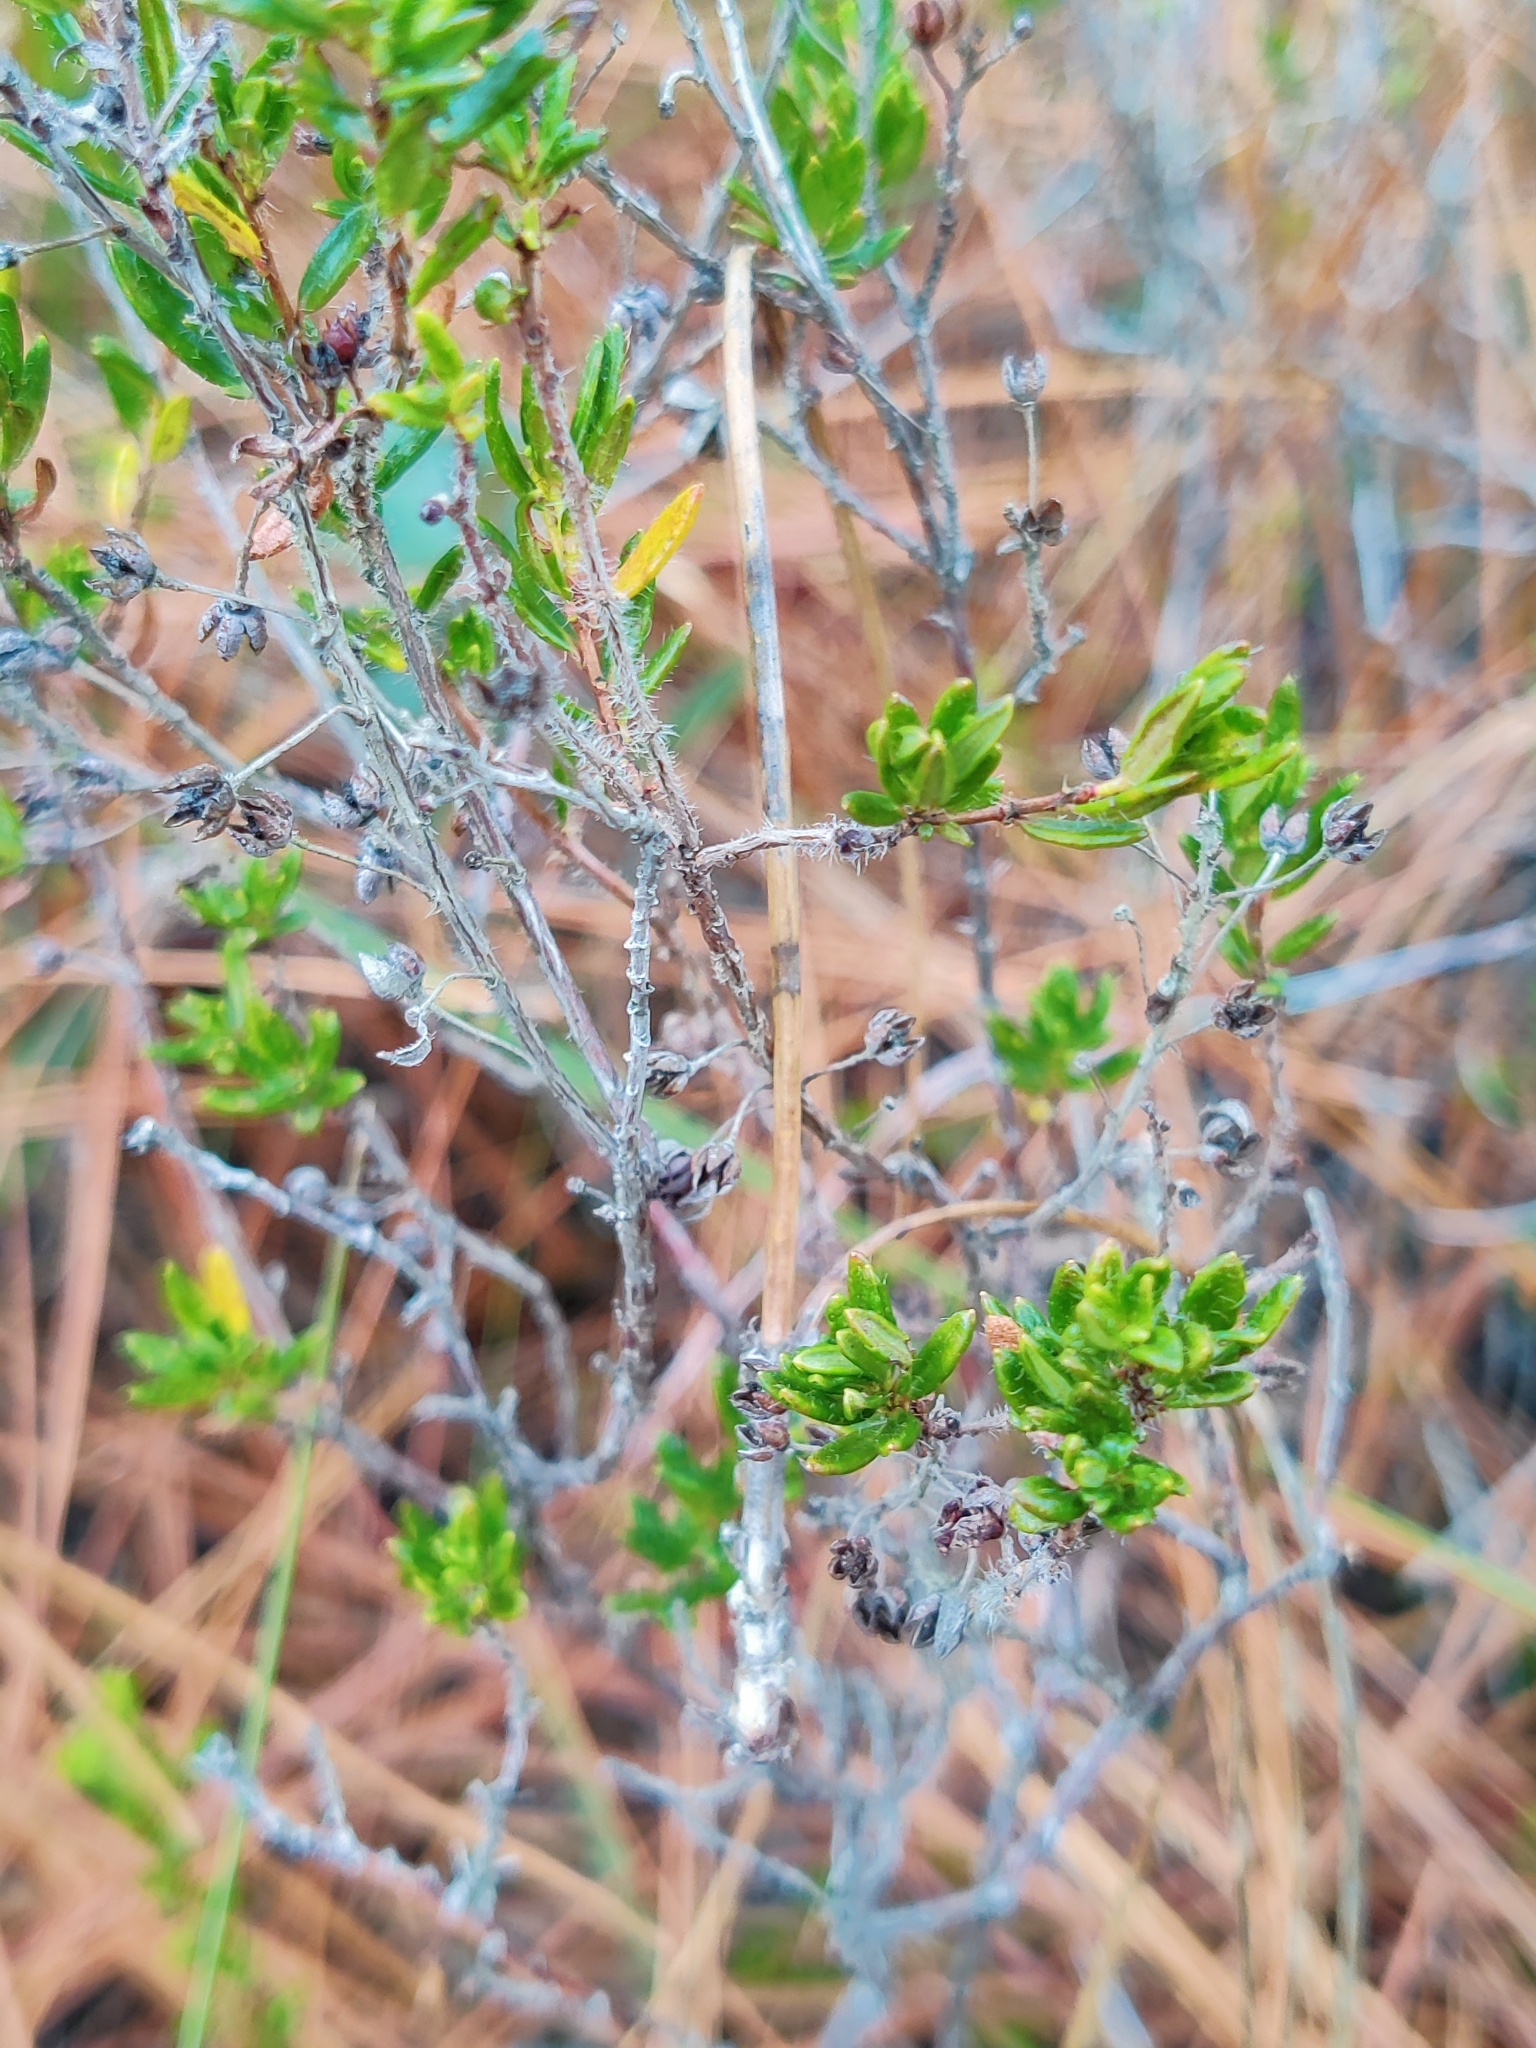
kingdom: Plantae
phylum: Tracheophyta
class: Magnoliopsida
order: Ericales
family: Ericaceae
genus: Kalmia
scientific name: Kalmia hirsuta
